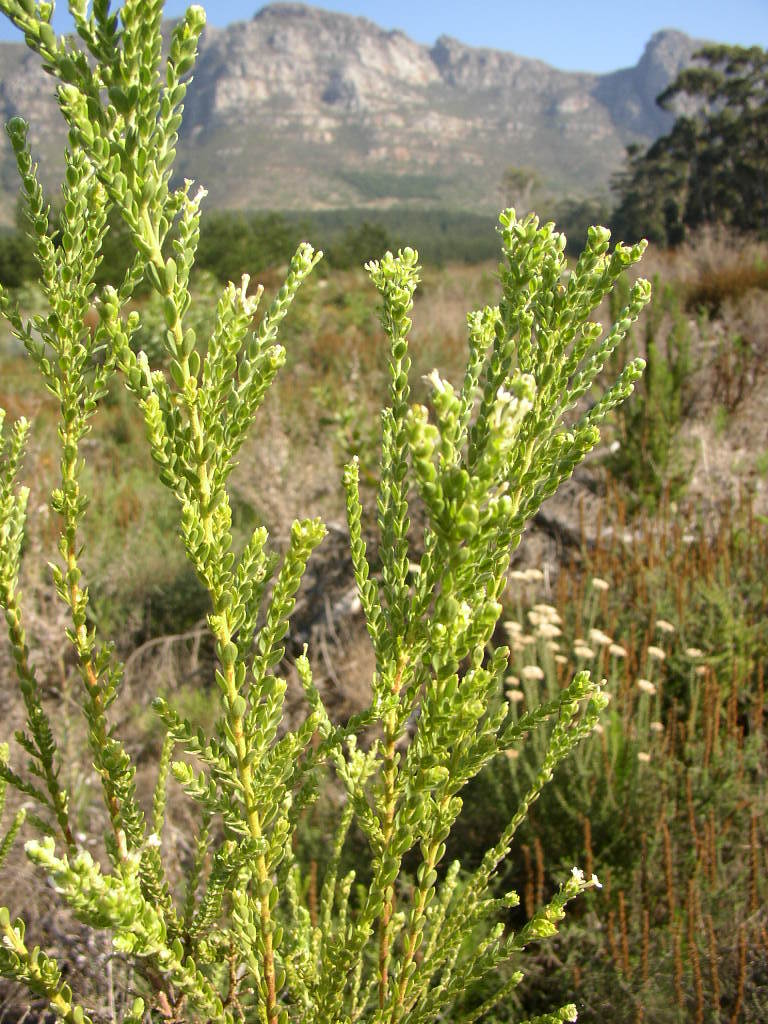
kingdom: Plantae
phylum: Tracheophyta
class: Magnoliopsida
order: Malvales
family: Thymelaeaceae
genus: Gnidia
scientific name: Gnidia sericea
